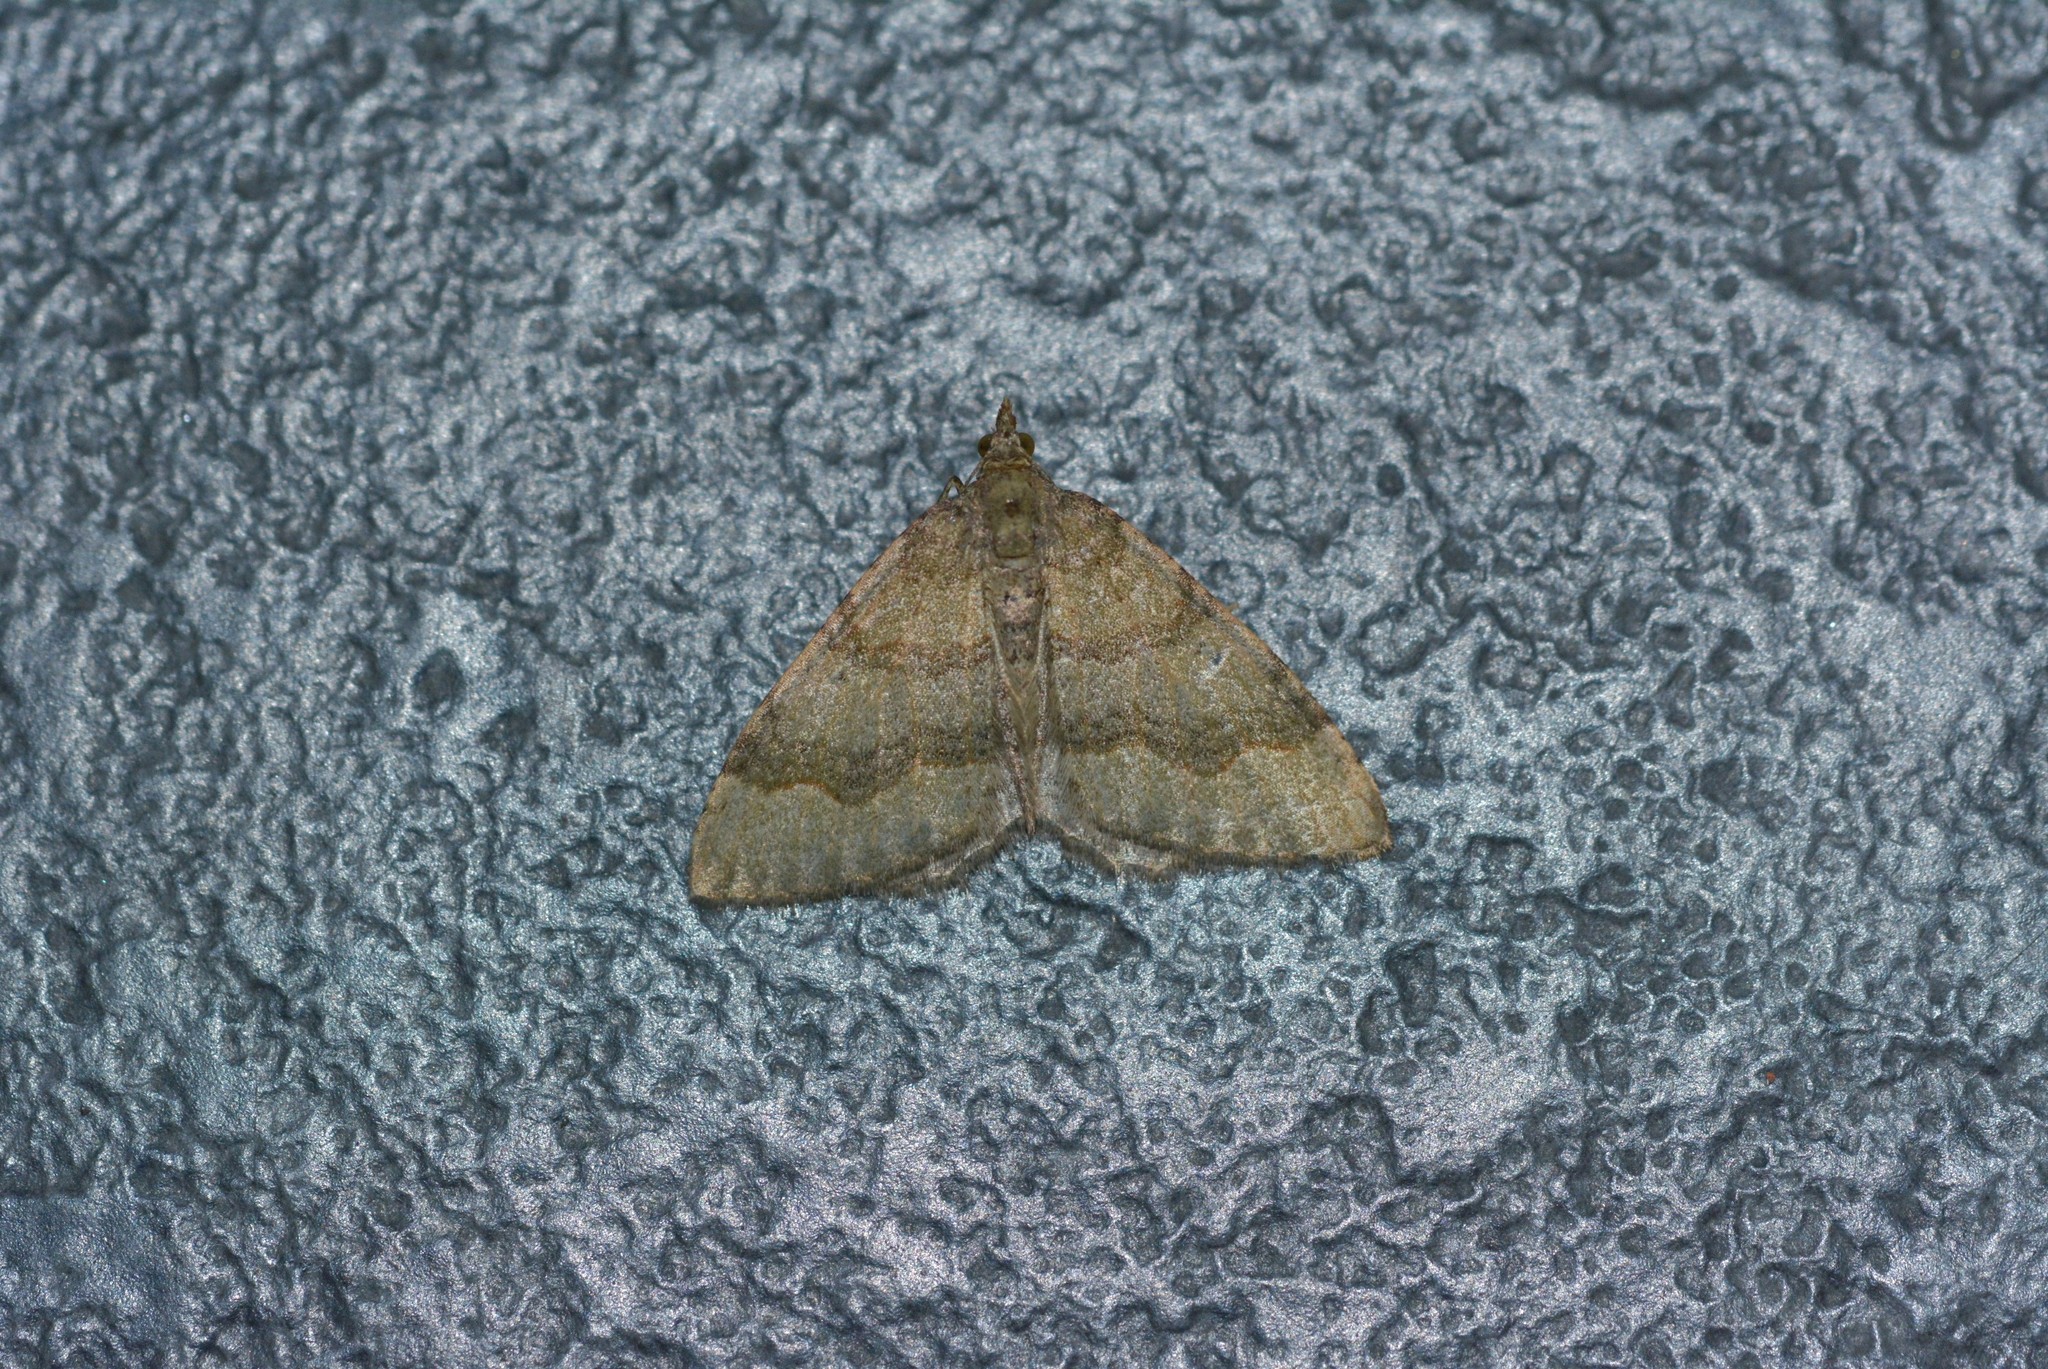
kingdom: Animalia
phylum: Arthropoda
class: Insecta
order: Lepidoptera
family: Geometridae
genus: Epyaxa
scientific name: Epyaxa rosearia
